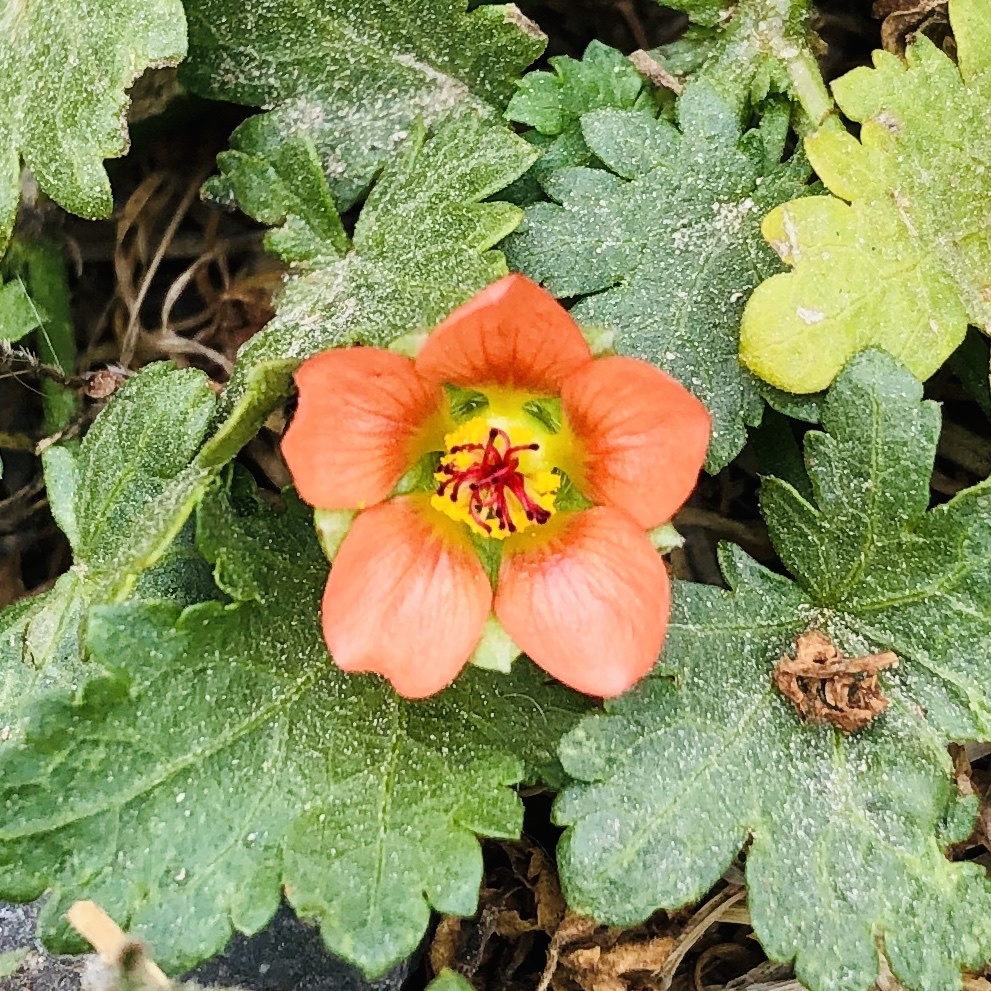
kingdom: Plantae
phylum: Tracheophyta
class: Magnoliopsida
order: Malvales
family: Malvaceae
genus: Modiola
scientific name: Modiola caroliniana
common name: Carolina bristlemallow
